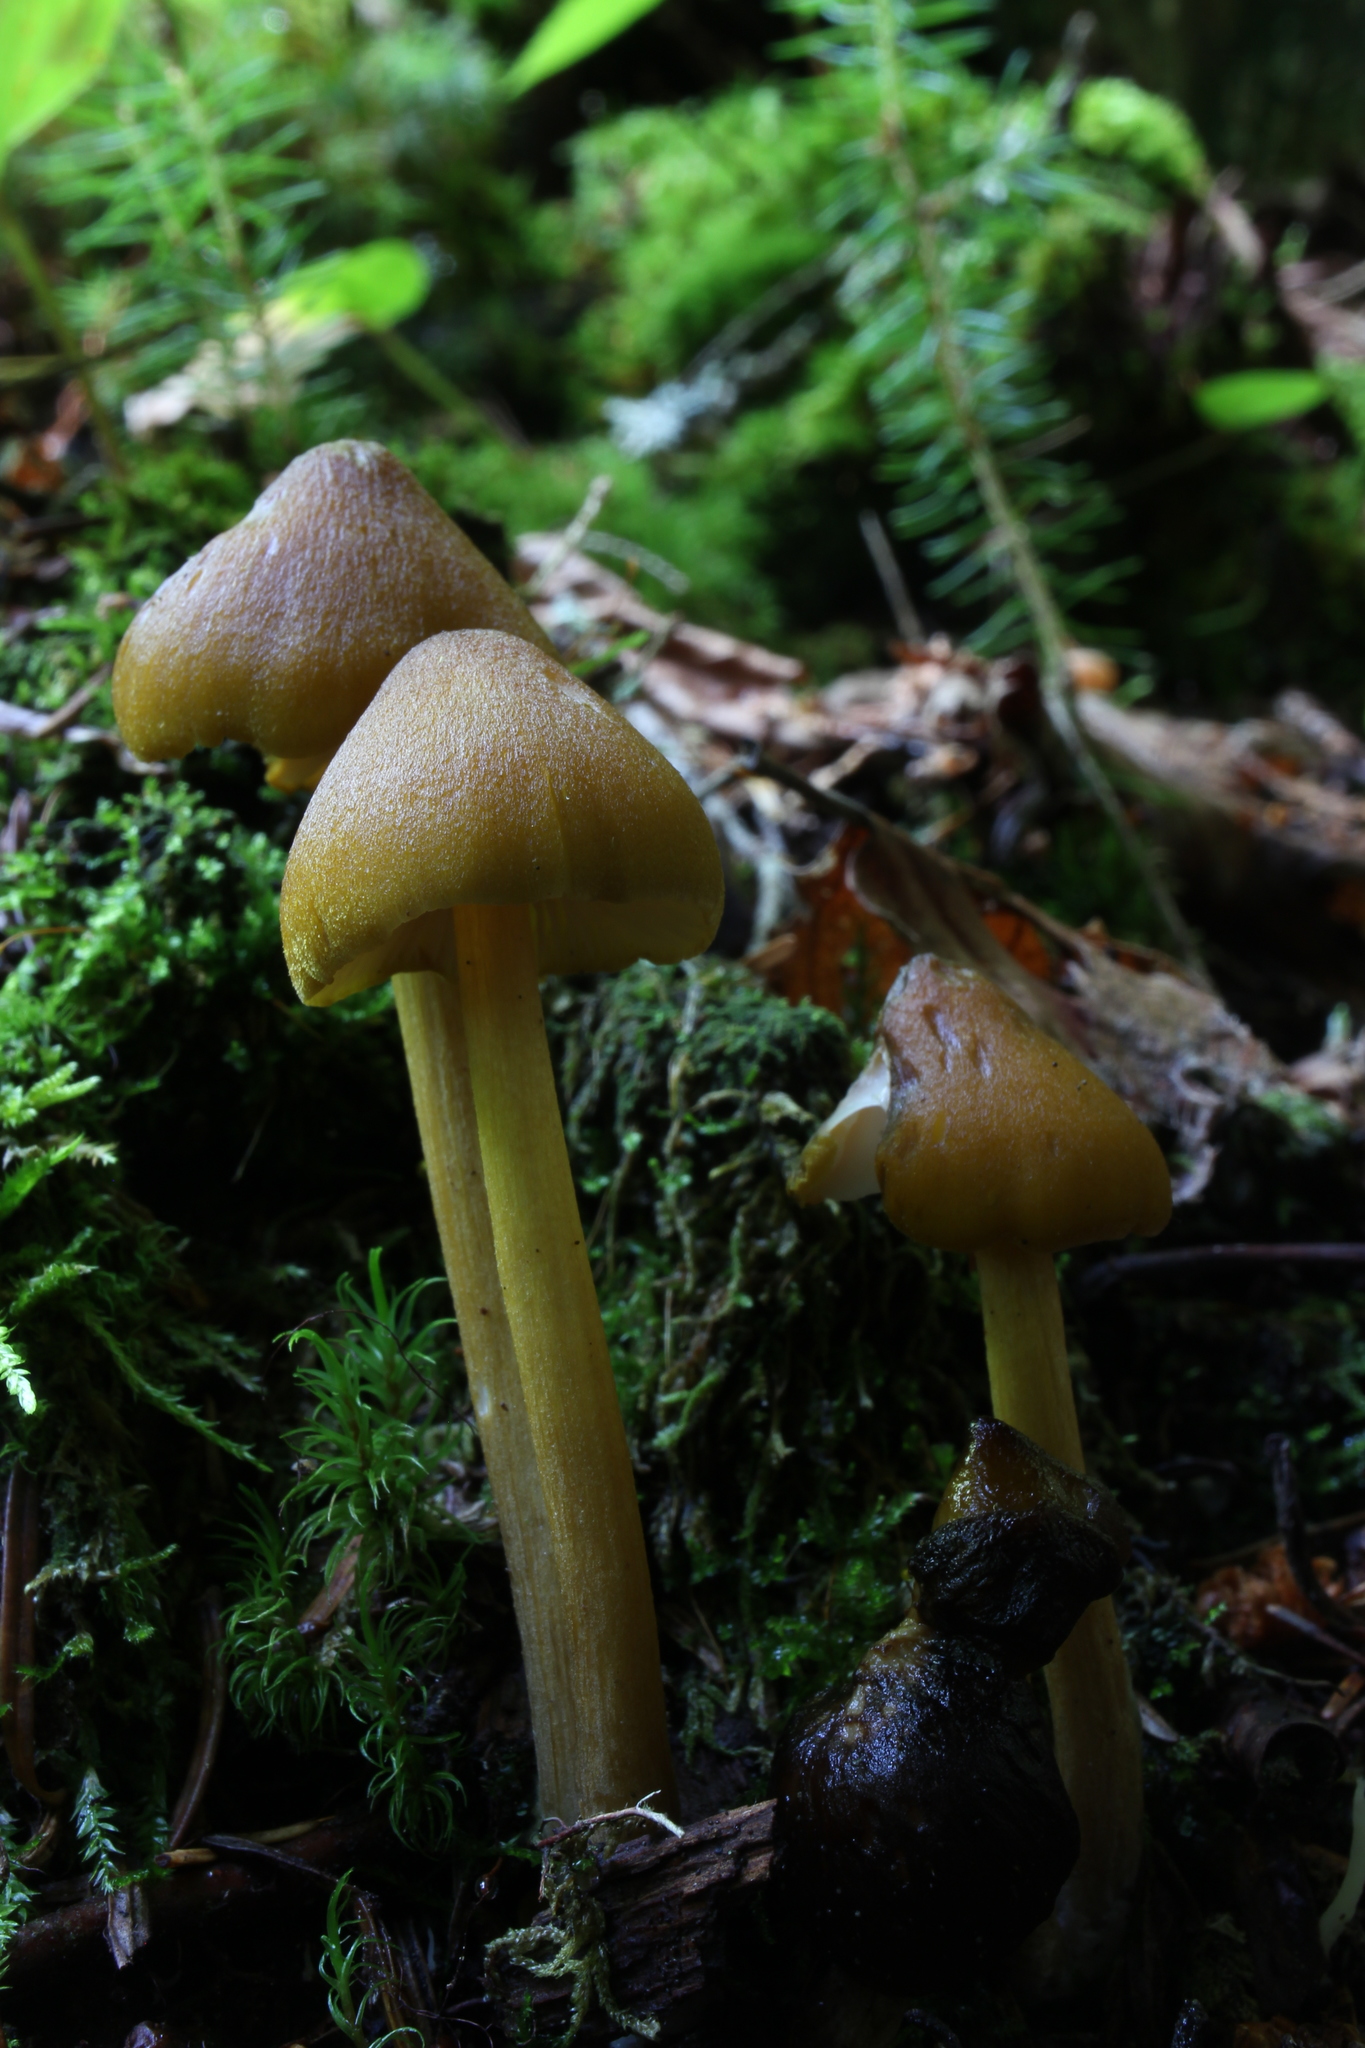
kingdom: Fungi
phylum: Basidiomycota
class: Agaricomycetes
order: Agaricales
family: Entolomataceae
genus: Entoloma
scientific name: Entoloma luteum
